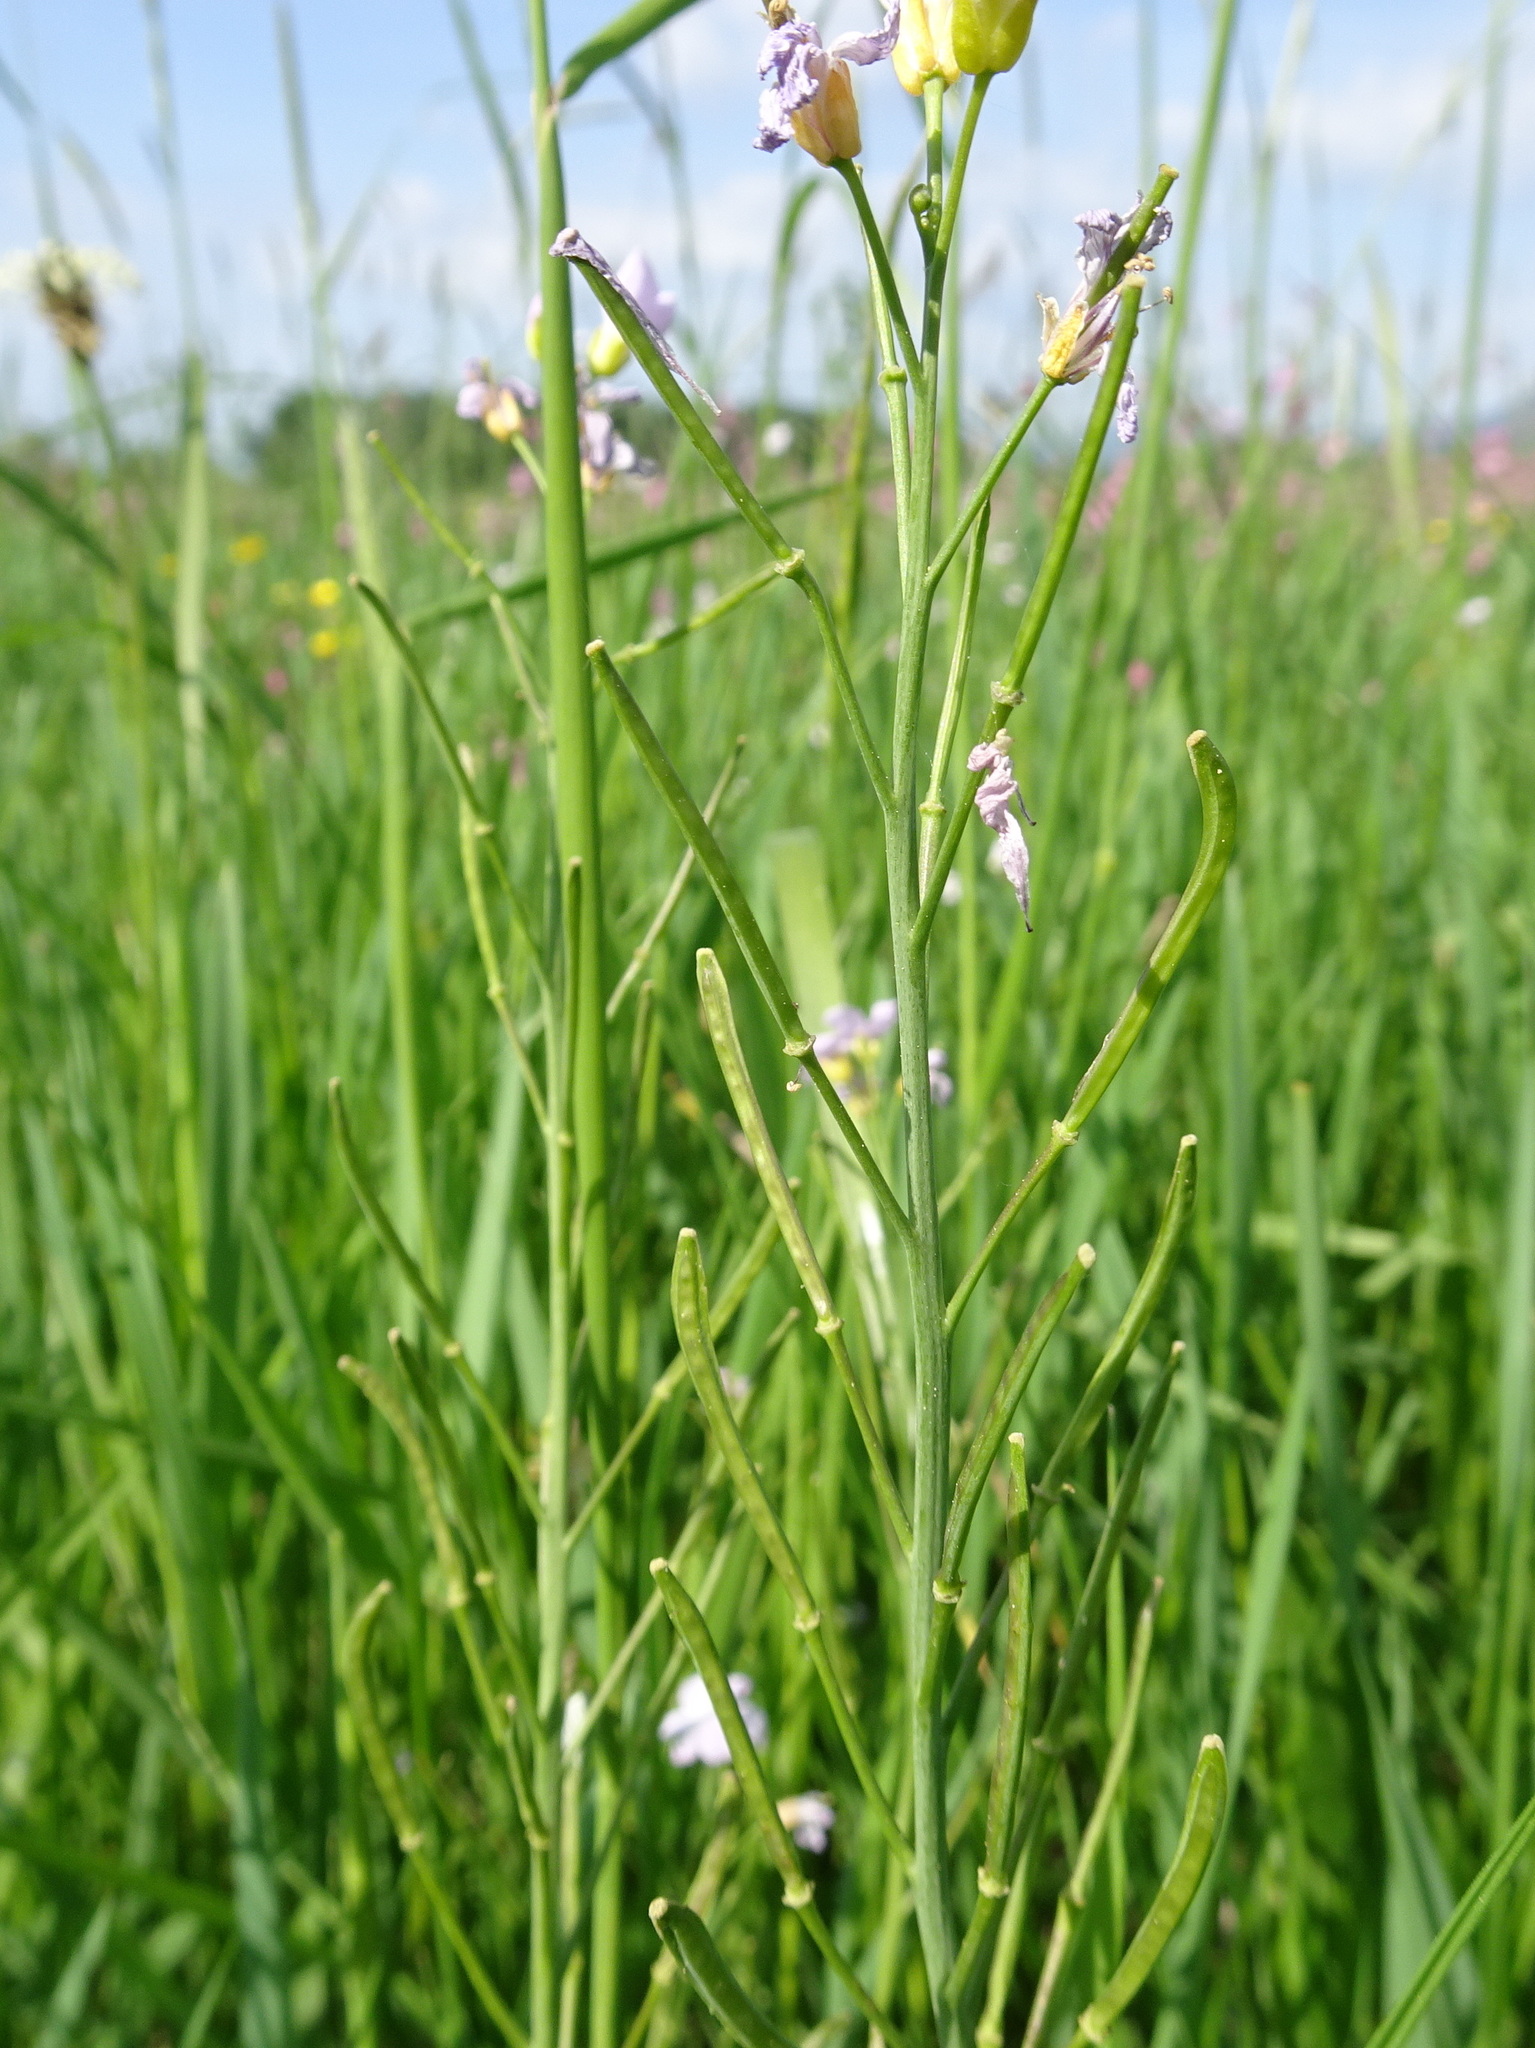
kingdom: Plantae
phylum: Tracheophyta
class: Magnoliopsida
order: Brassicales
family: Brassicaceae
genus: Cardamine
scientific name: Cardamine pratensis
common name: Cuckoo flower
